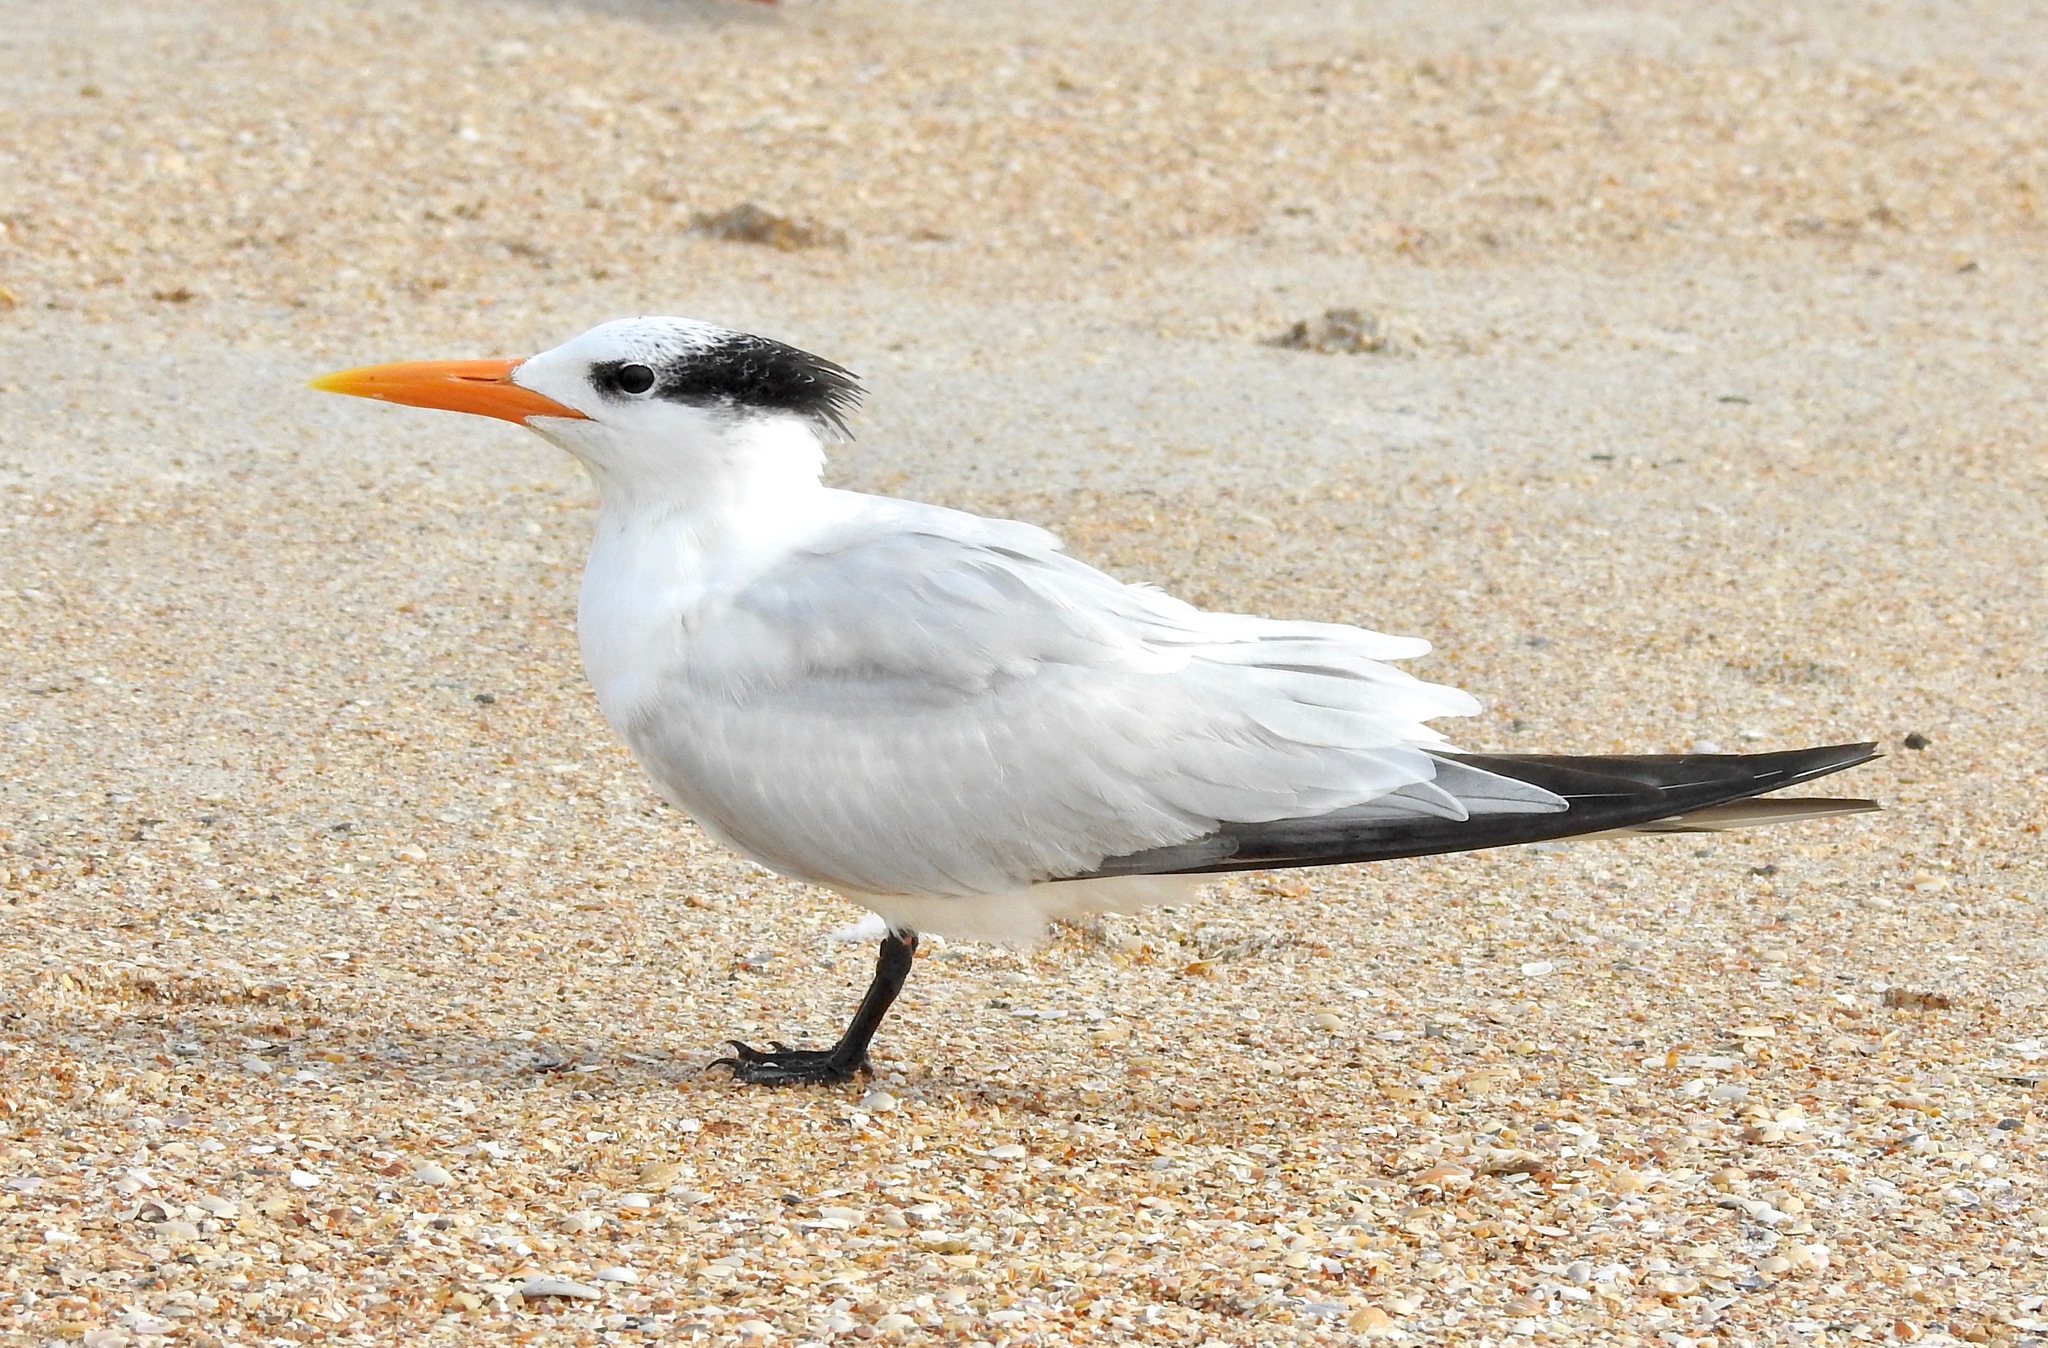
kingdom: Animalia
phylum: Chordata
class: Aves
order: Charadriiformes
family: Laridae
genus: Thalasseus
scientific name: Thalasseus maximus
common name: Royal tern
